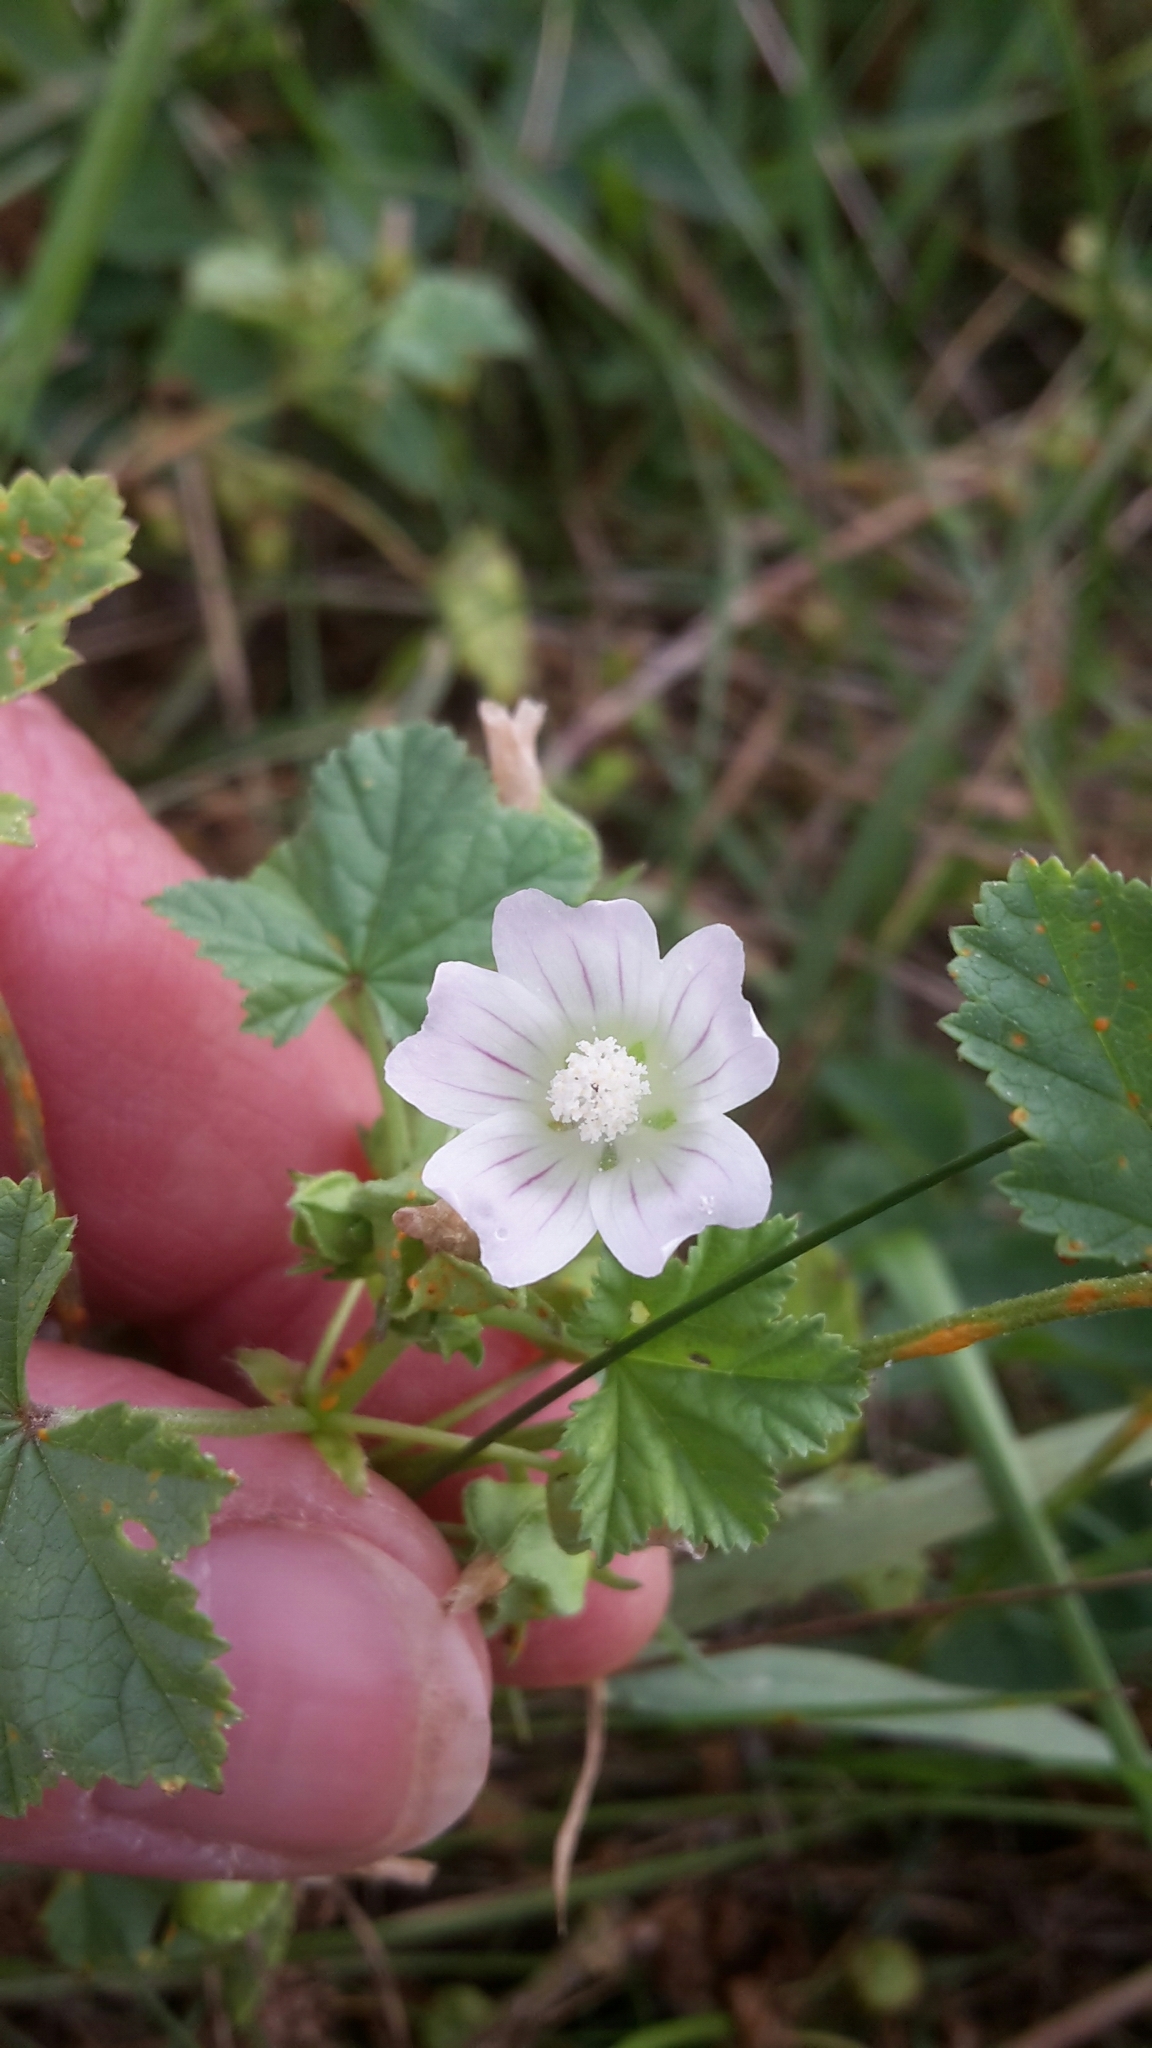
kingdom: Plantae
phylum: Tracheophyta
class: Magnoliopsida
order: Malvales
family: Malvaceae
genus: Malva
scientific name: Malva neglecta
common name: Common mallow
